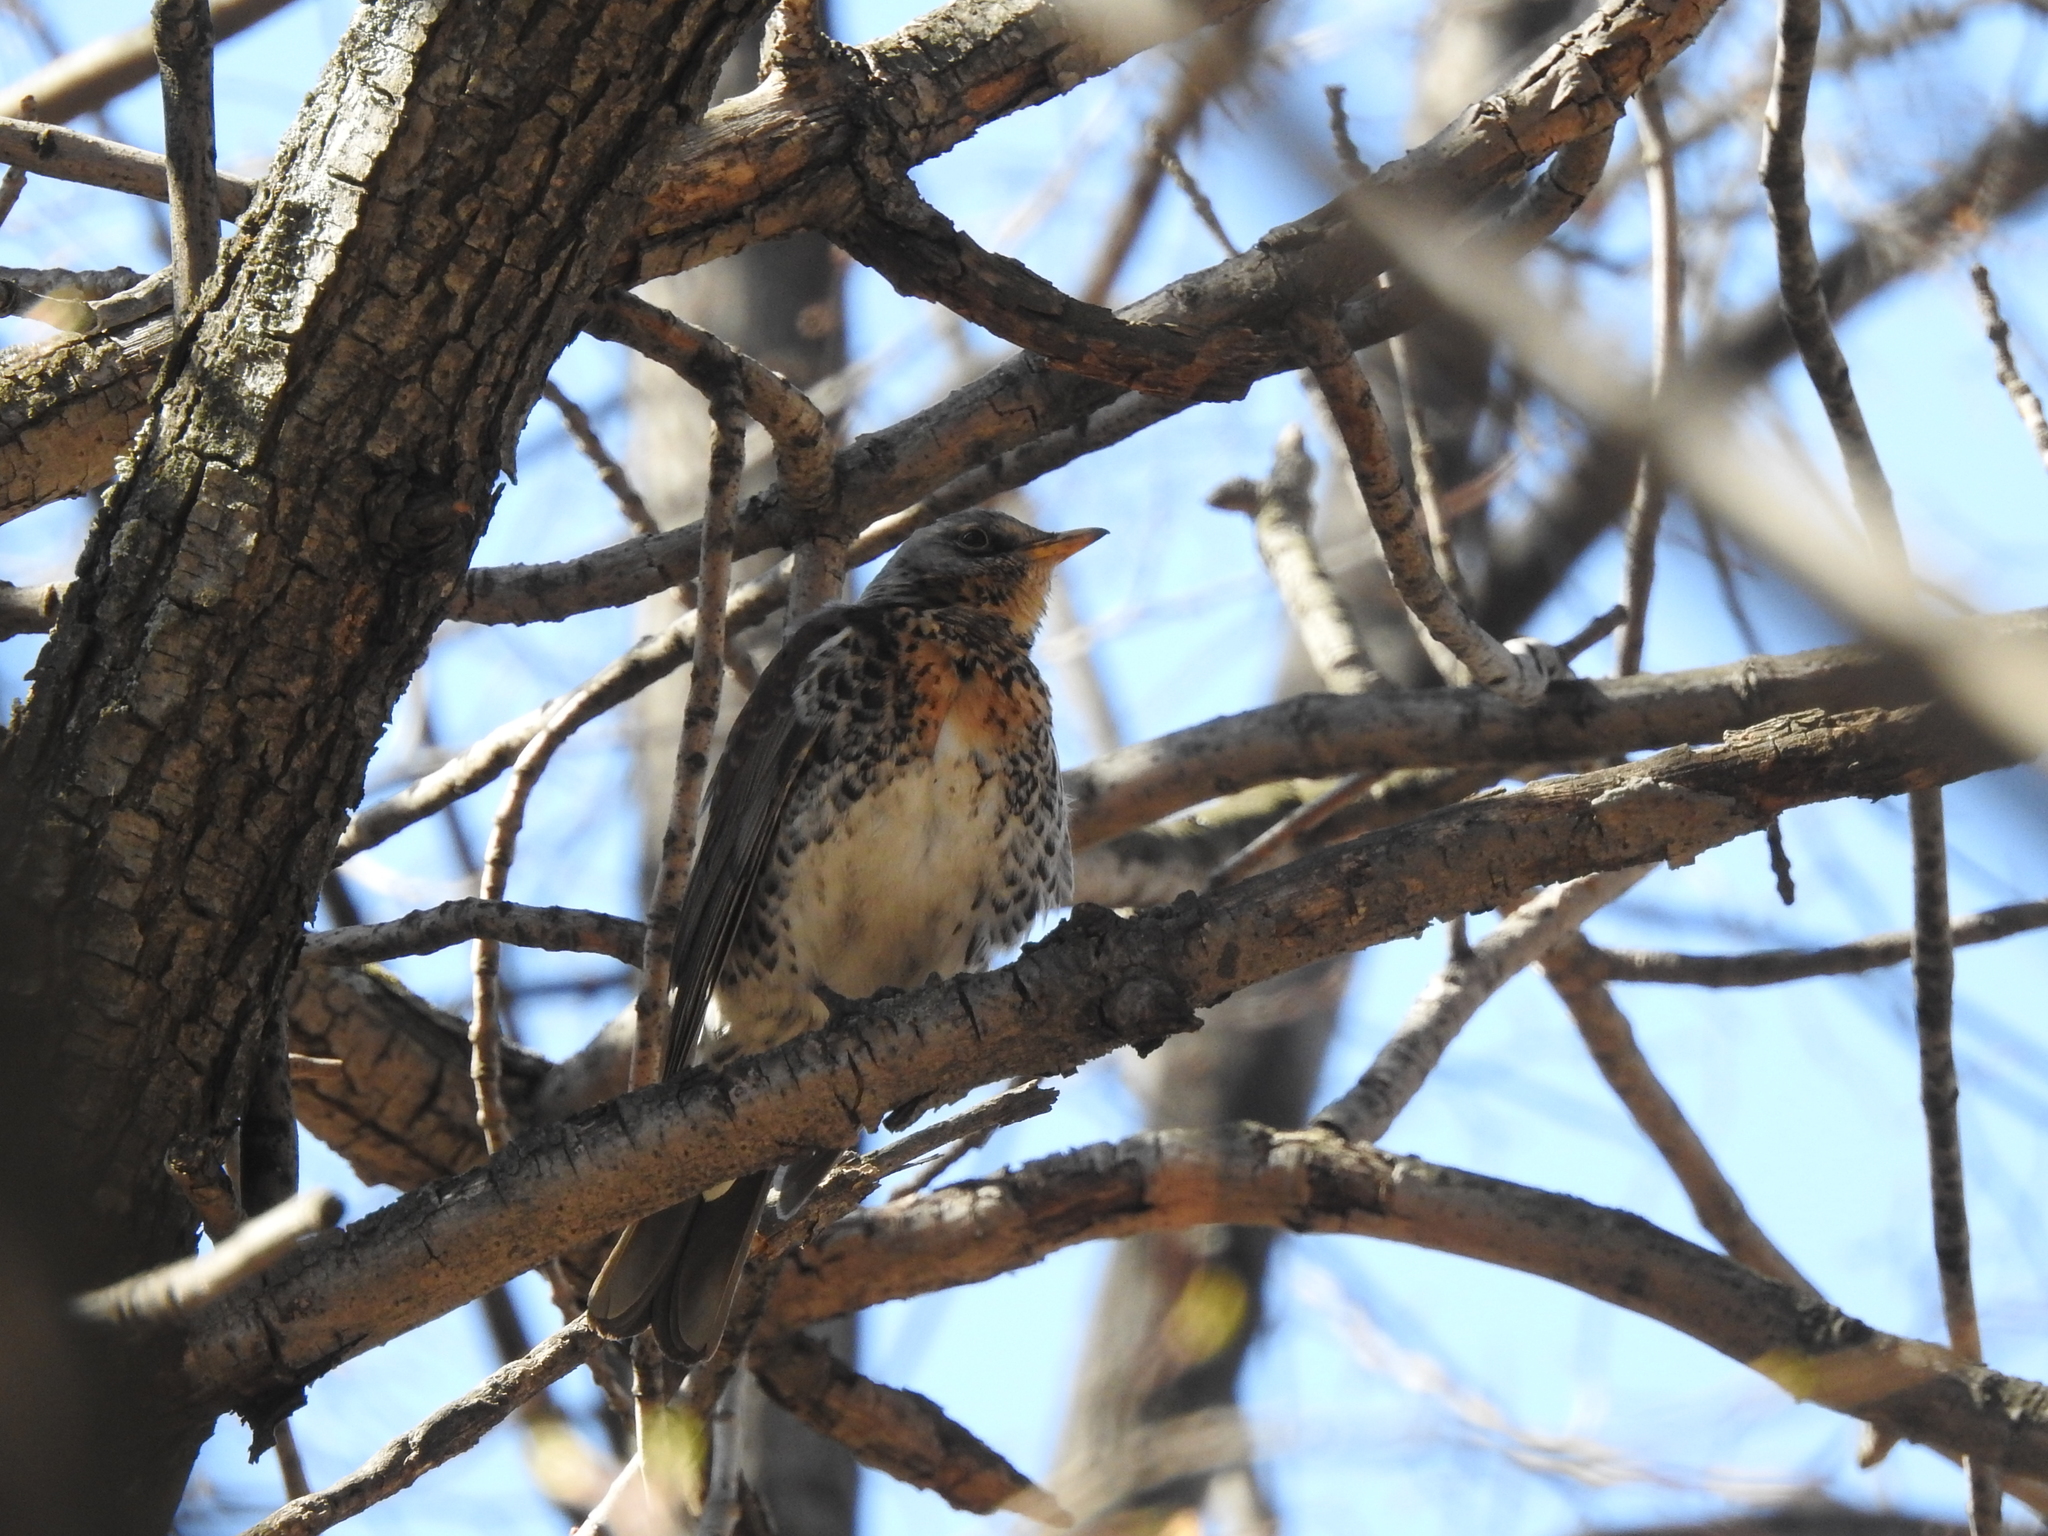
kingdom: Animalia
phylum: Chordata
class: Aves
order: Passeriformes
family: Turdidae
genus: Turdus
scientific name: Turdus pilaris
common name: Fieldfare
